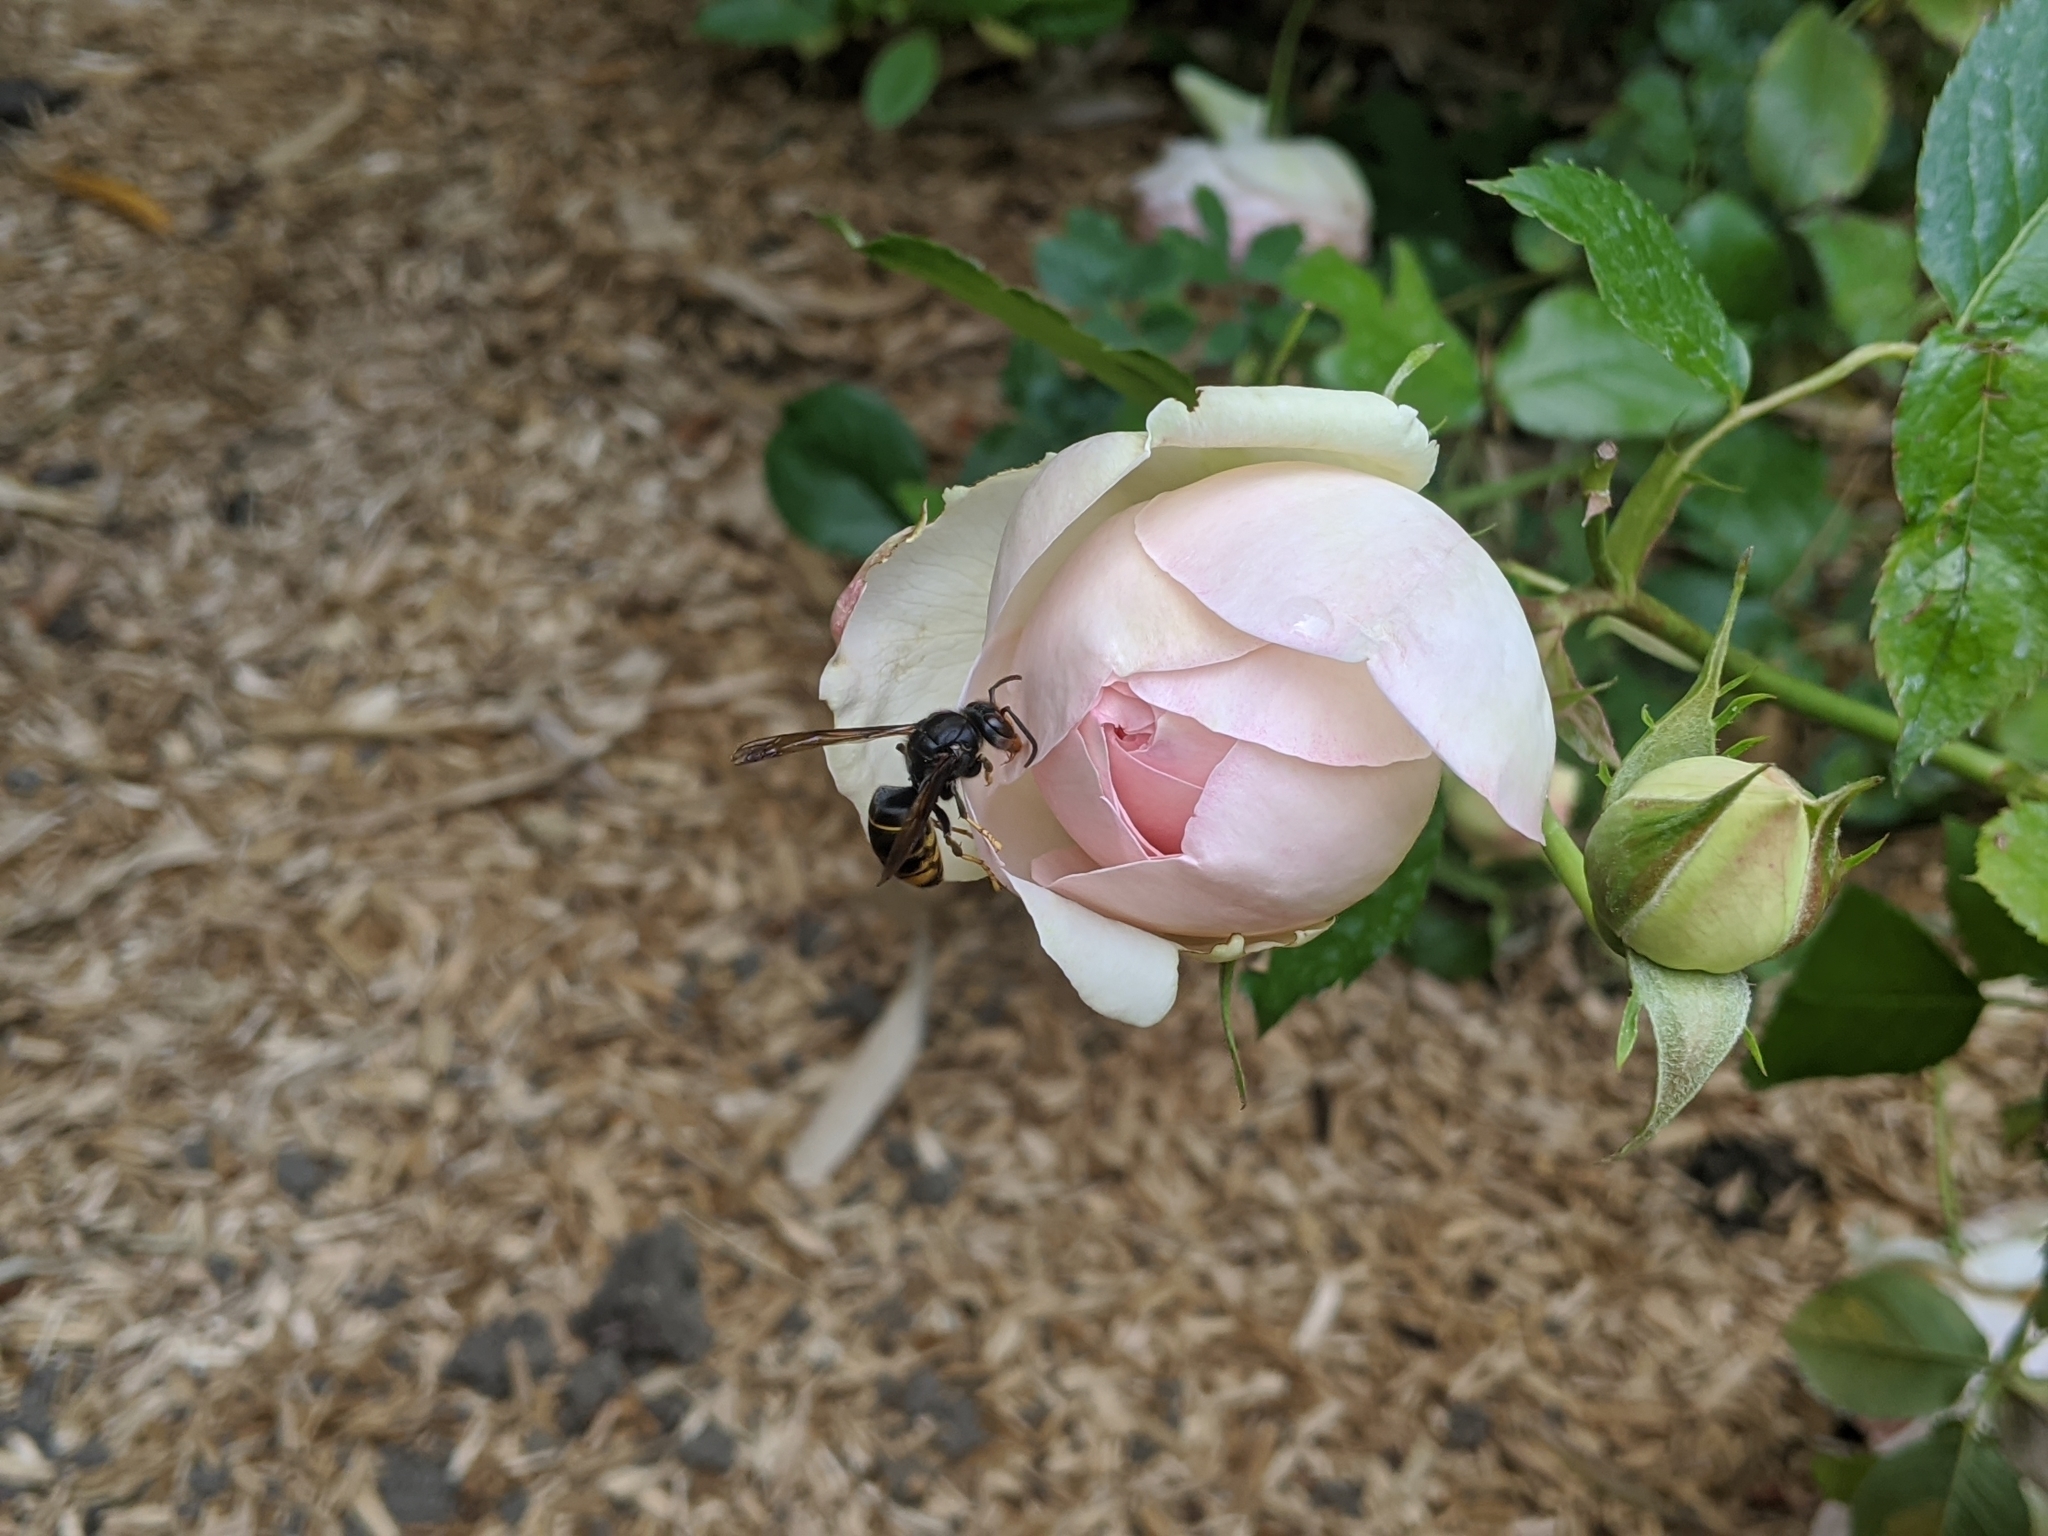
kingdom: Animalia
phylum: Arthropoda
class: Insecta
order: Hymenoptera
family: Vespidae
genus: Vespa
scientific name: Vespa velutina
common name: Asian hornet
